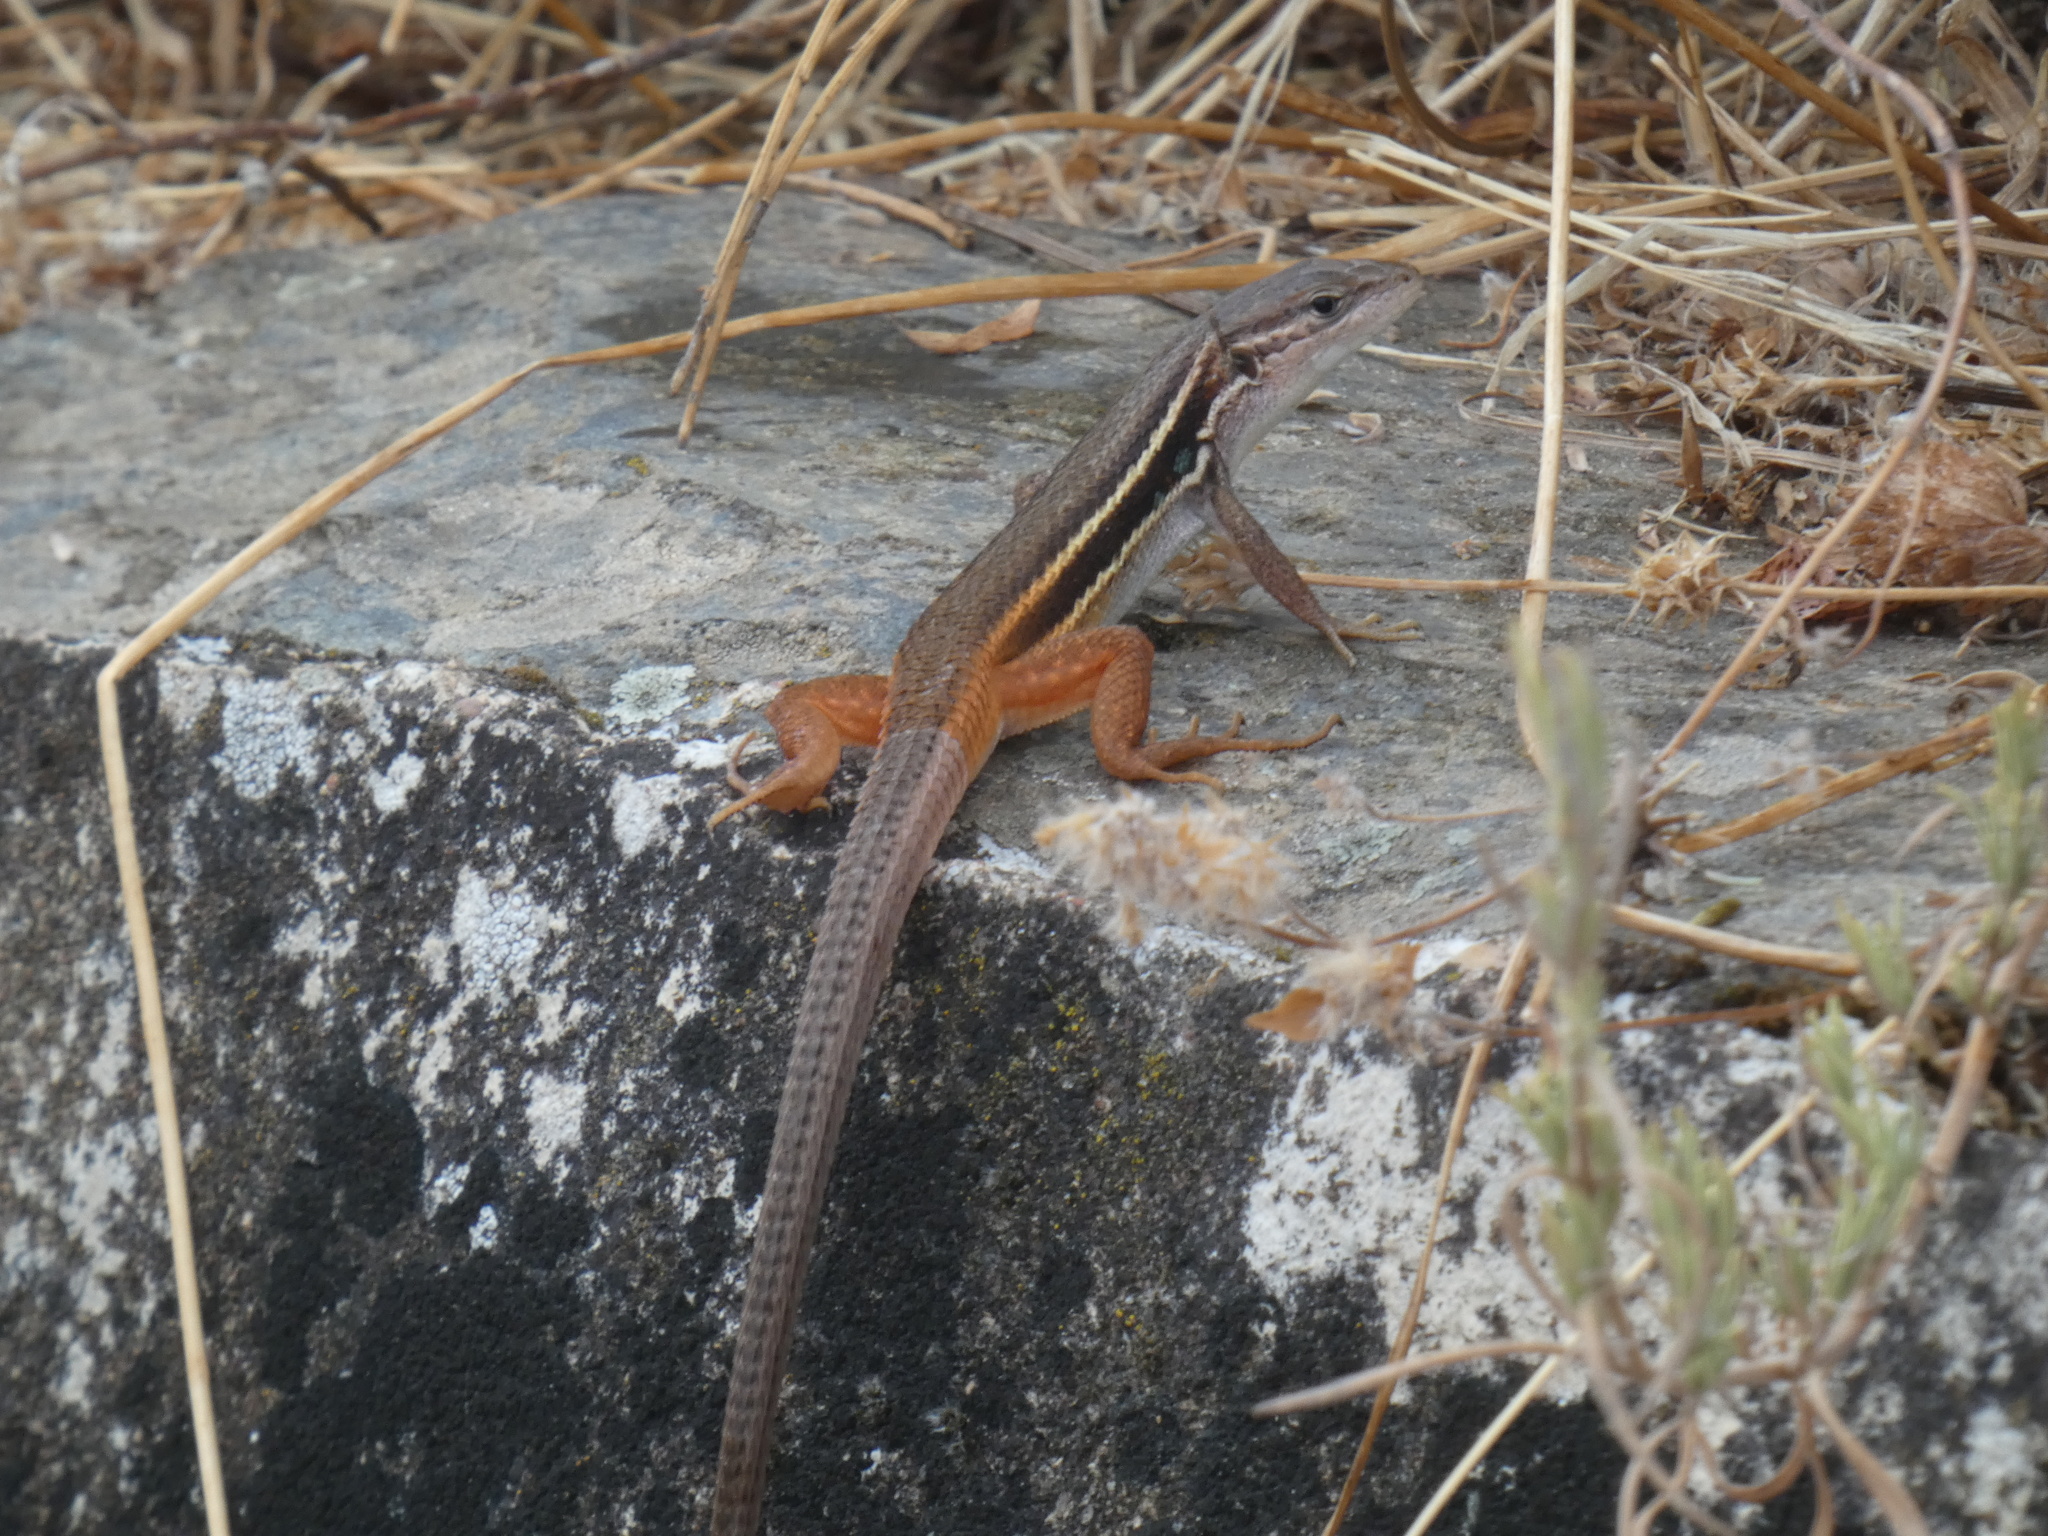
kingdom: Animalia
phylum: Chordata
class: Squamata
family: Lacertidae
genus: Psammodromus
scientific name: Psammodromus algirus
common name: Algerian psammodromus
